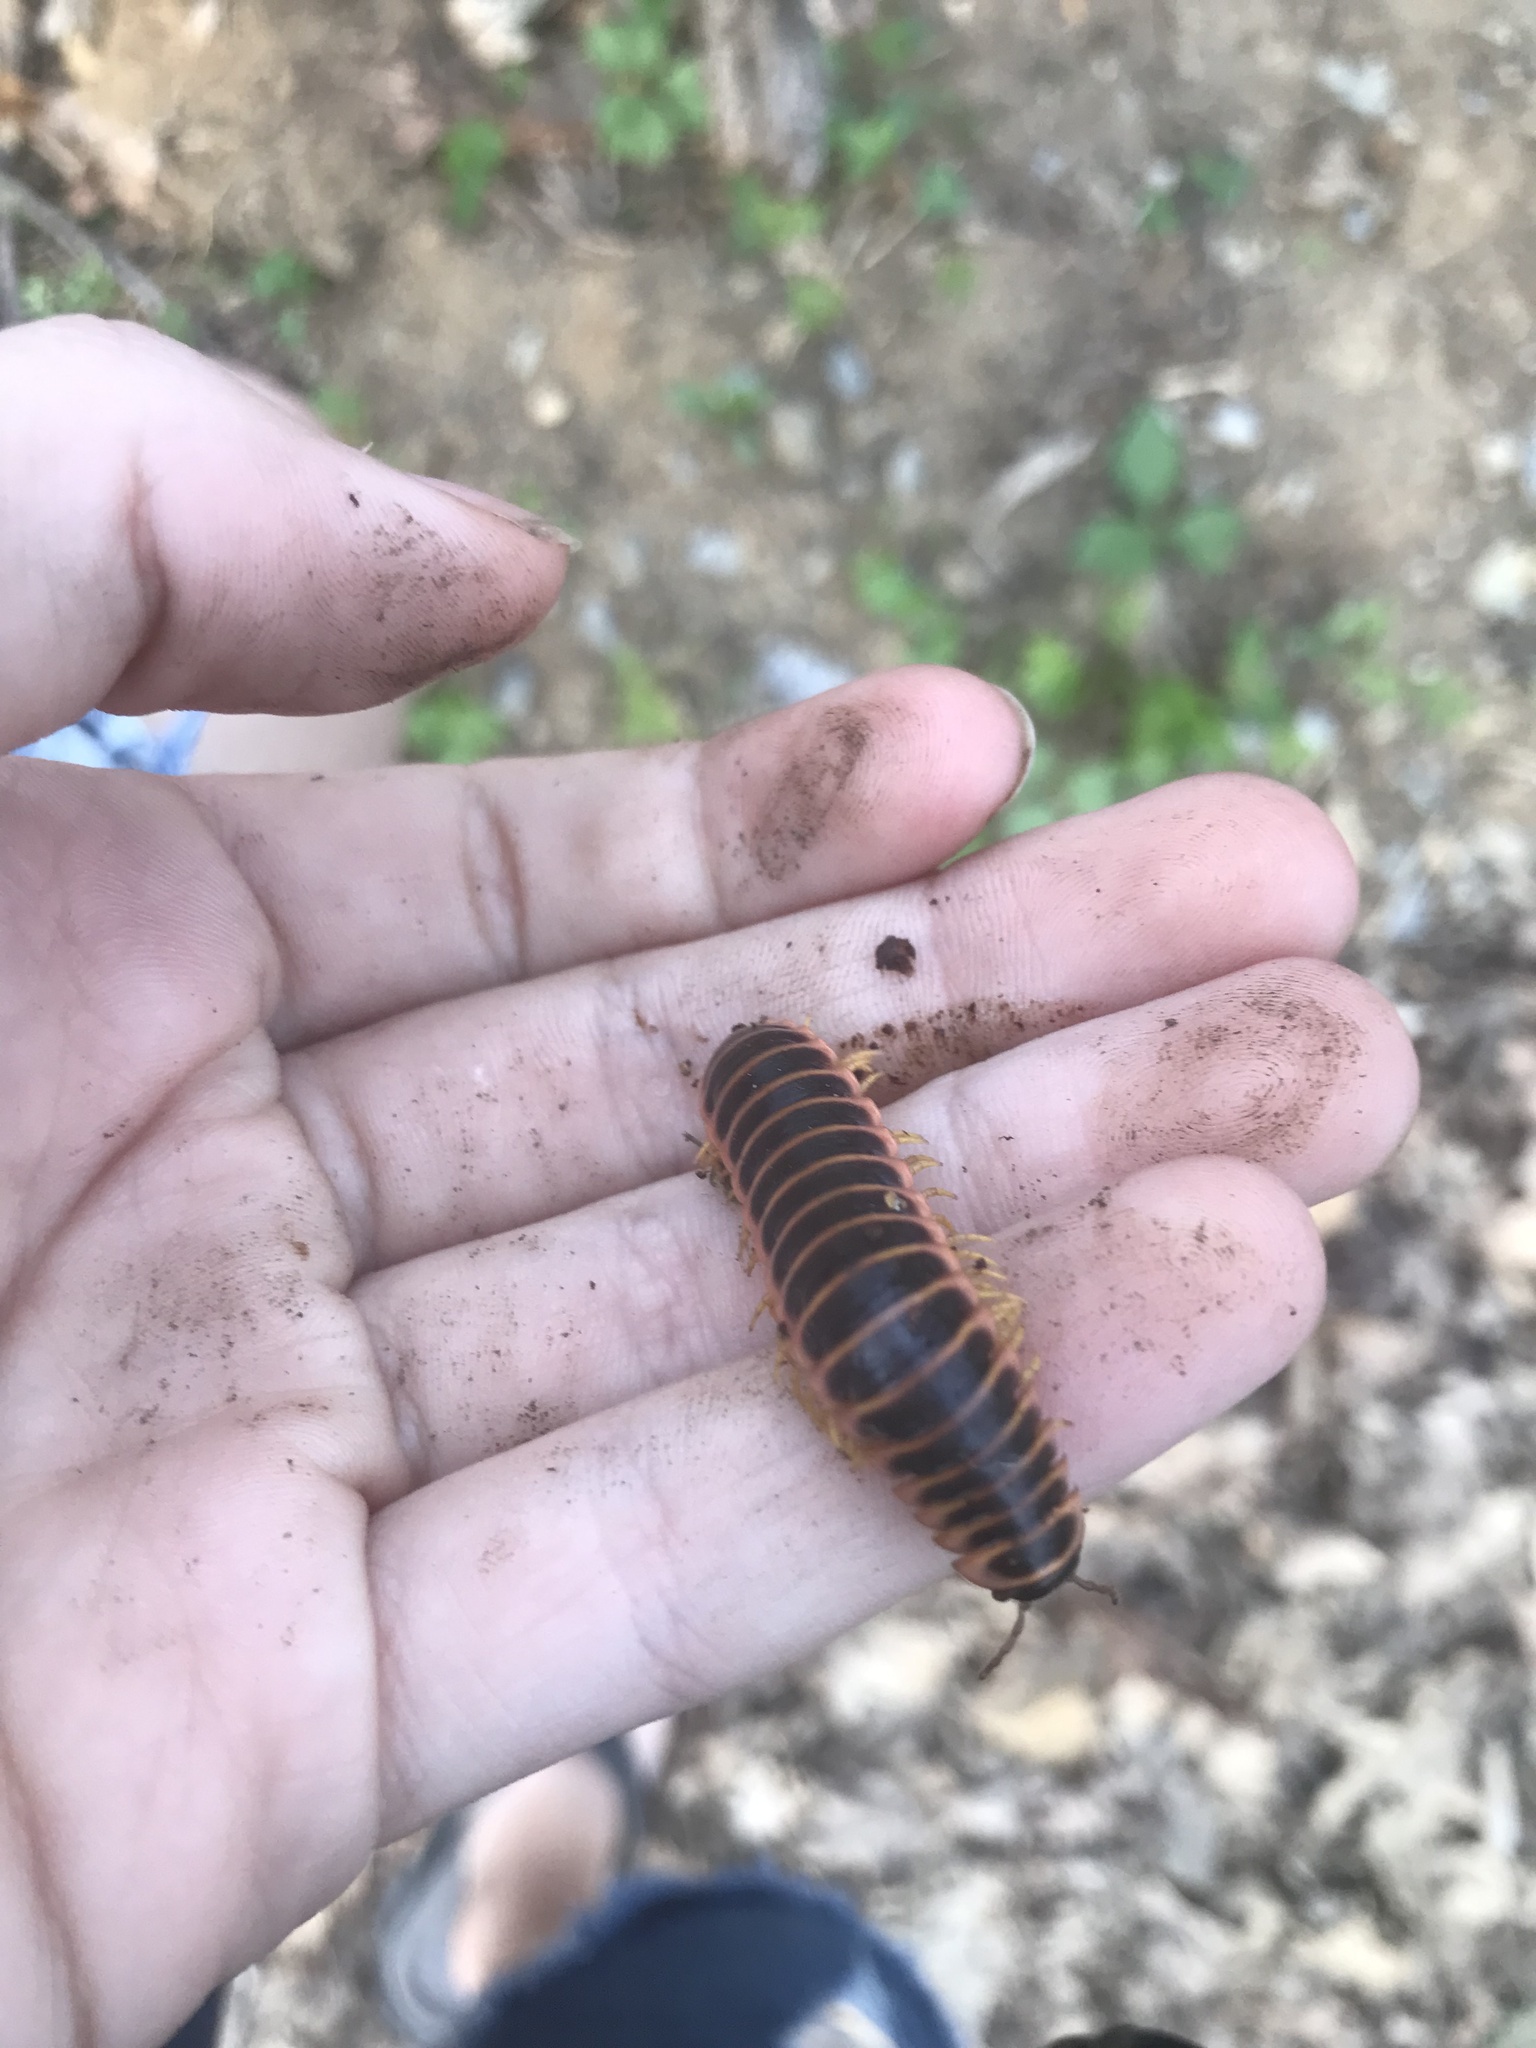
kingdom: Animalia
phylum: Arthropoda
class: Diplopoda
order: Polydesmida
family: Xystodesmidae
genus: Apheloria
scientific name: Apheloria virginiensis
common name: Black-and-gold flat millipede
